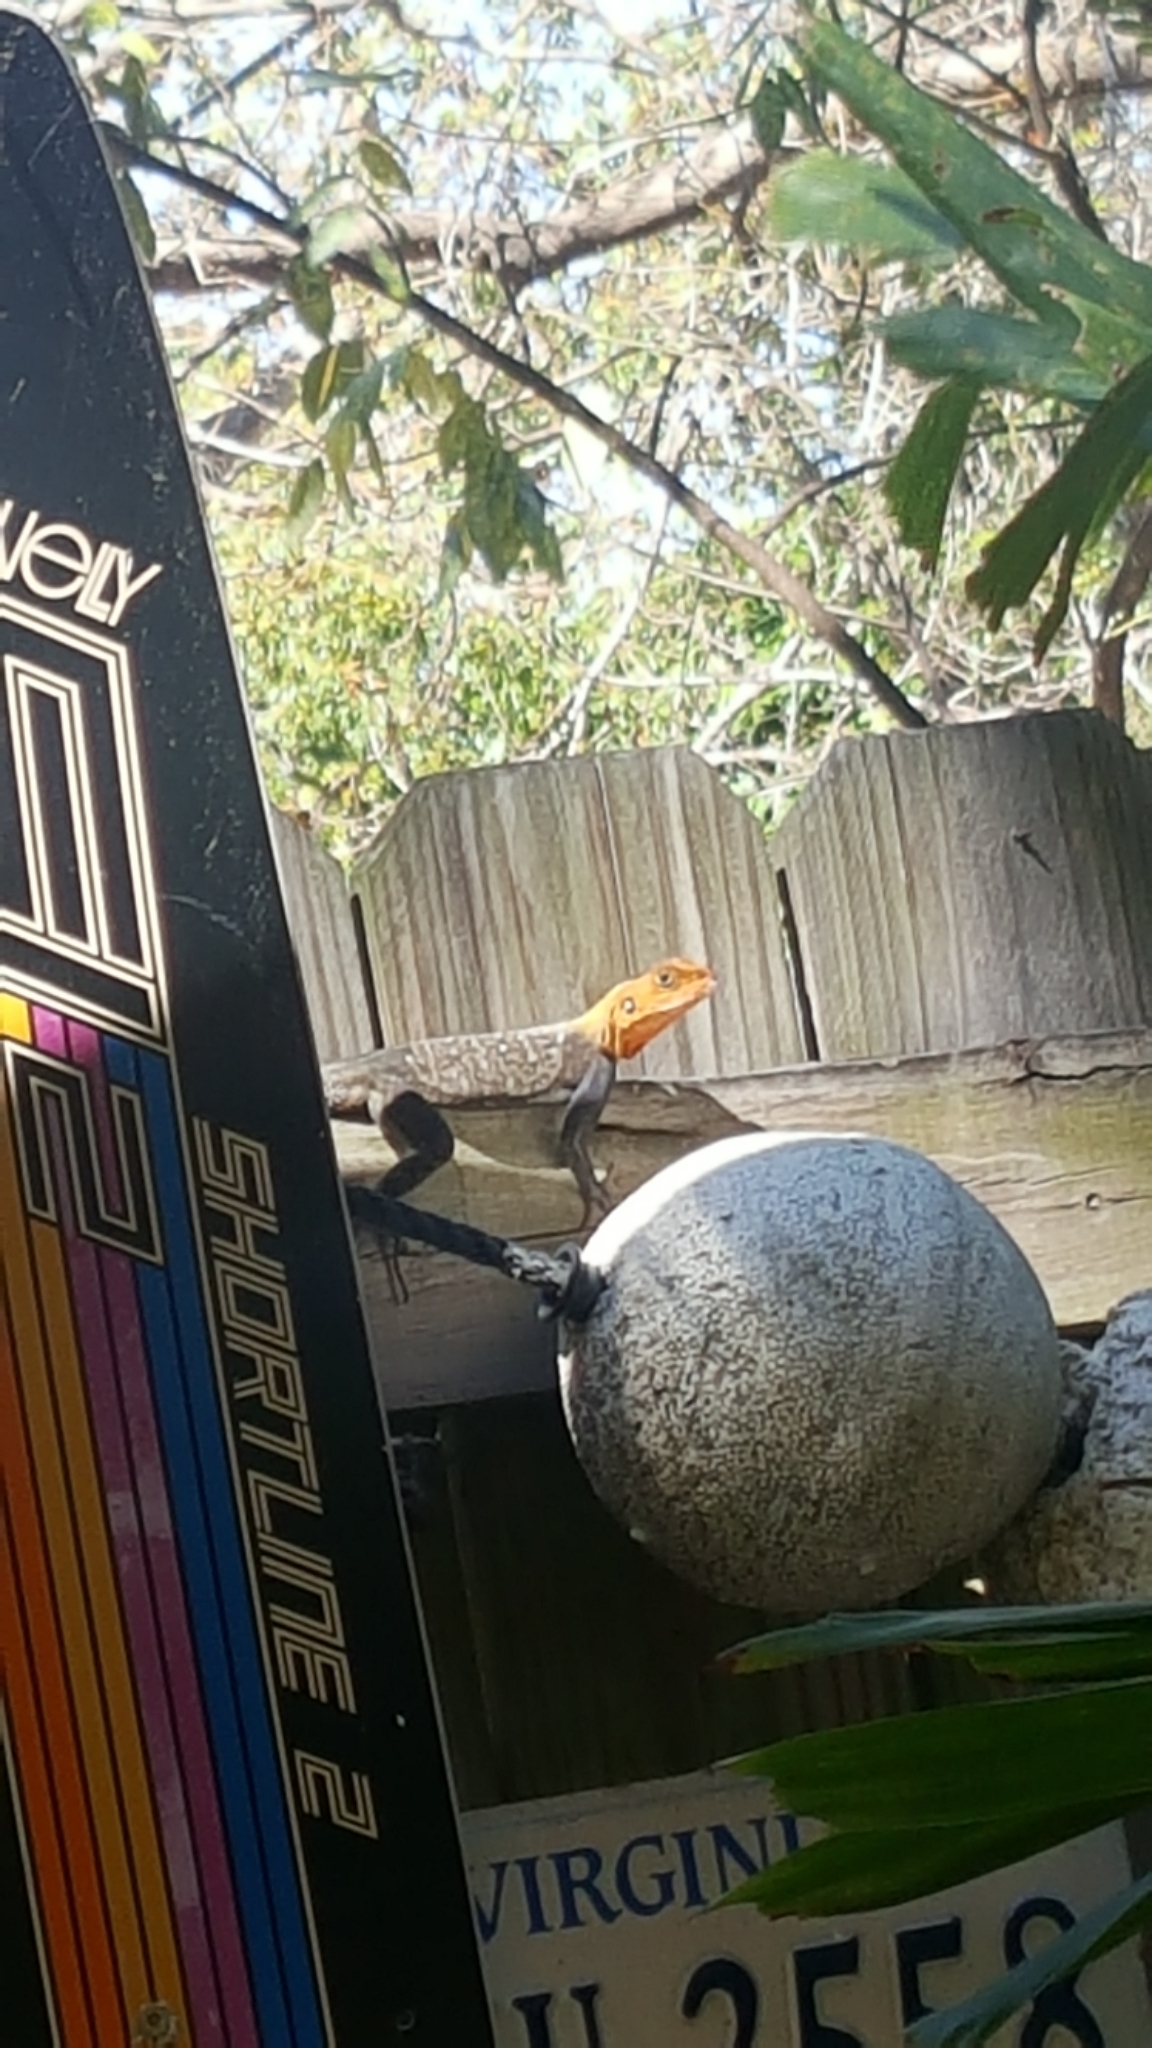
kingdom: Animalia
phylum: Chordata
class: Squamata
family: Agamidae
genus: Agama
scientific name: Agama picticauda
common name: Red-headed agama
